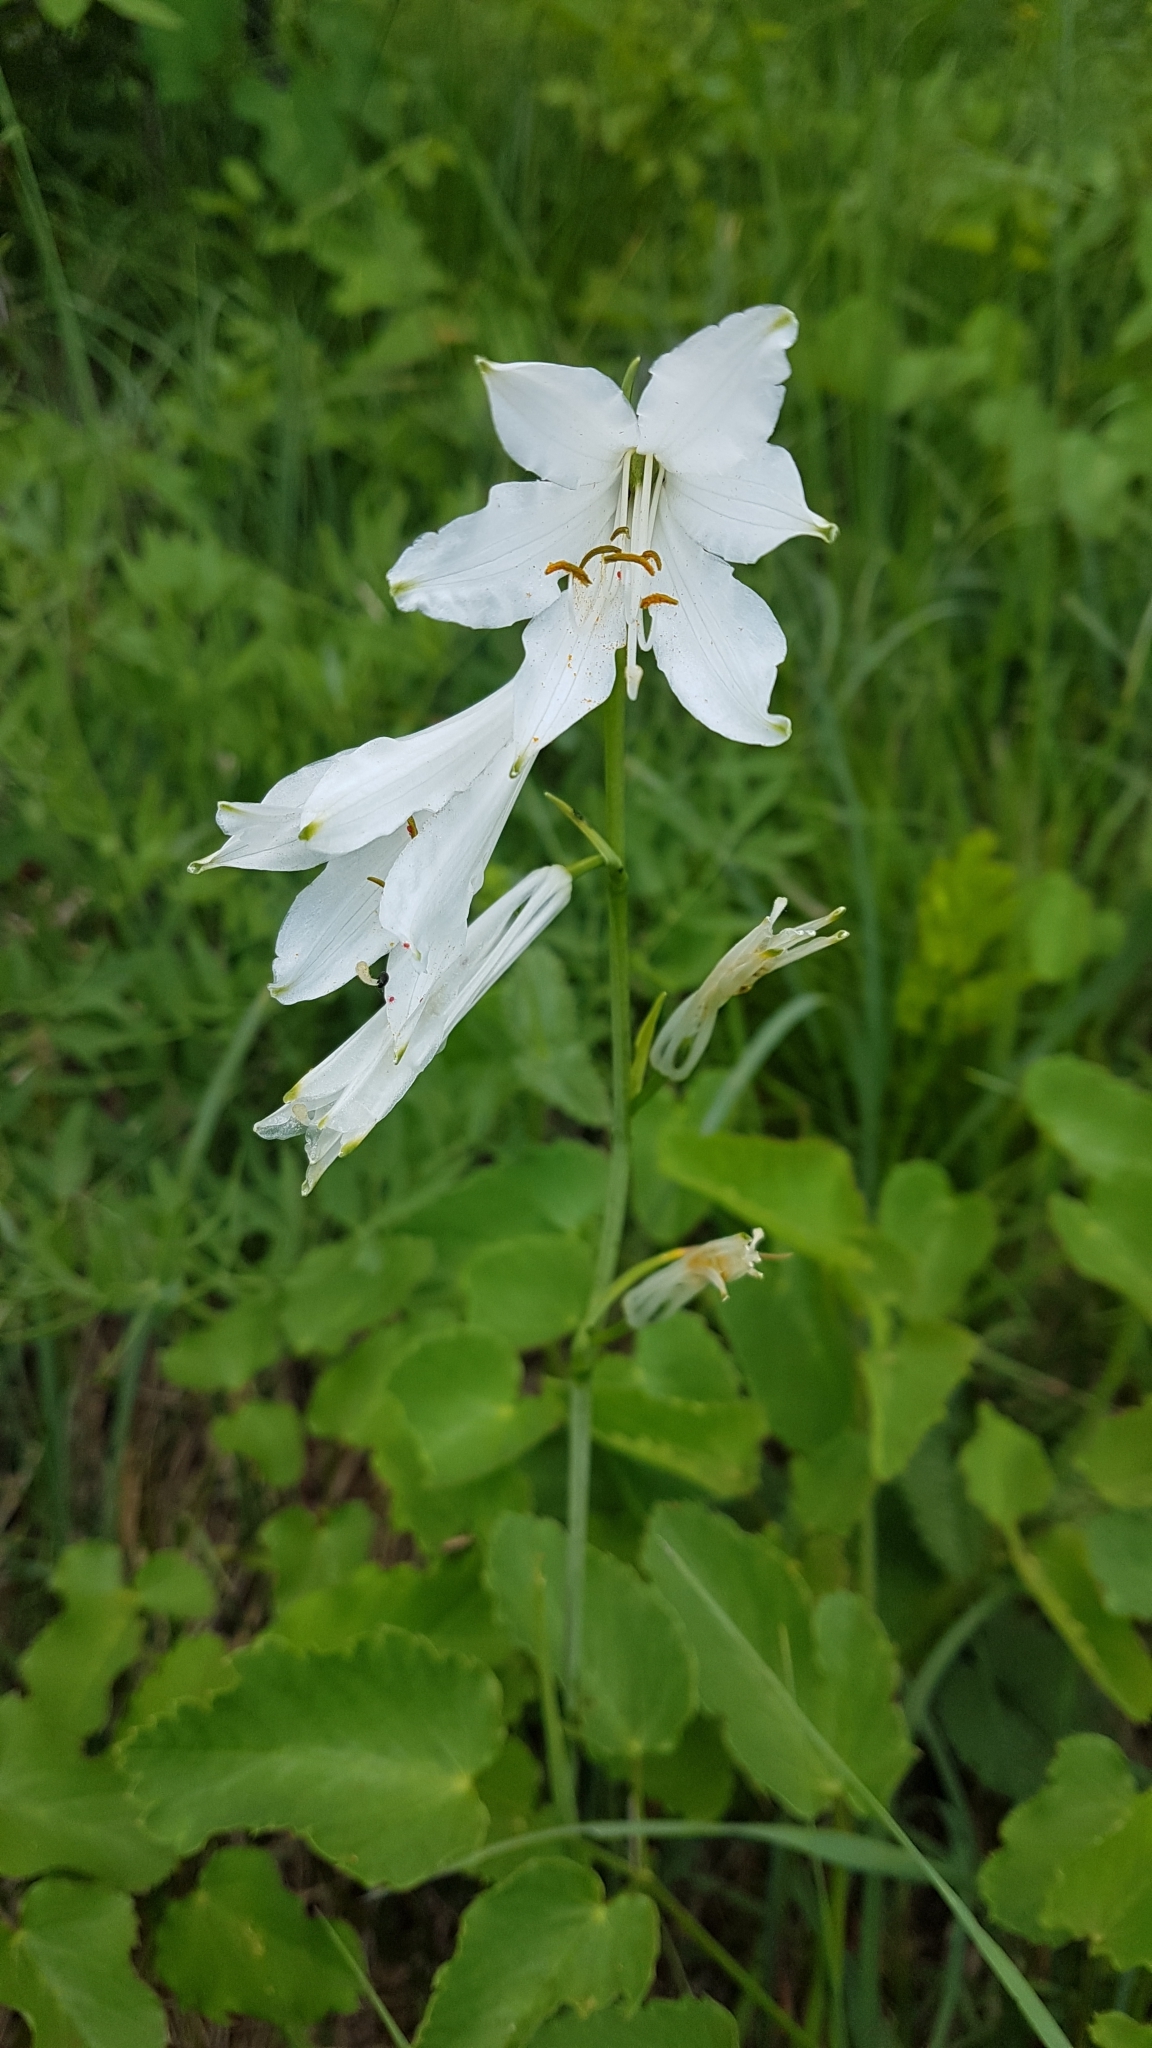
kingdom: Plantae
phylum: Tracheophyta
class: Liliopsida
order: Asparagales
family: Asparagaceae
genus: Paradisea
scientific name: Paradisea liliastrum
